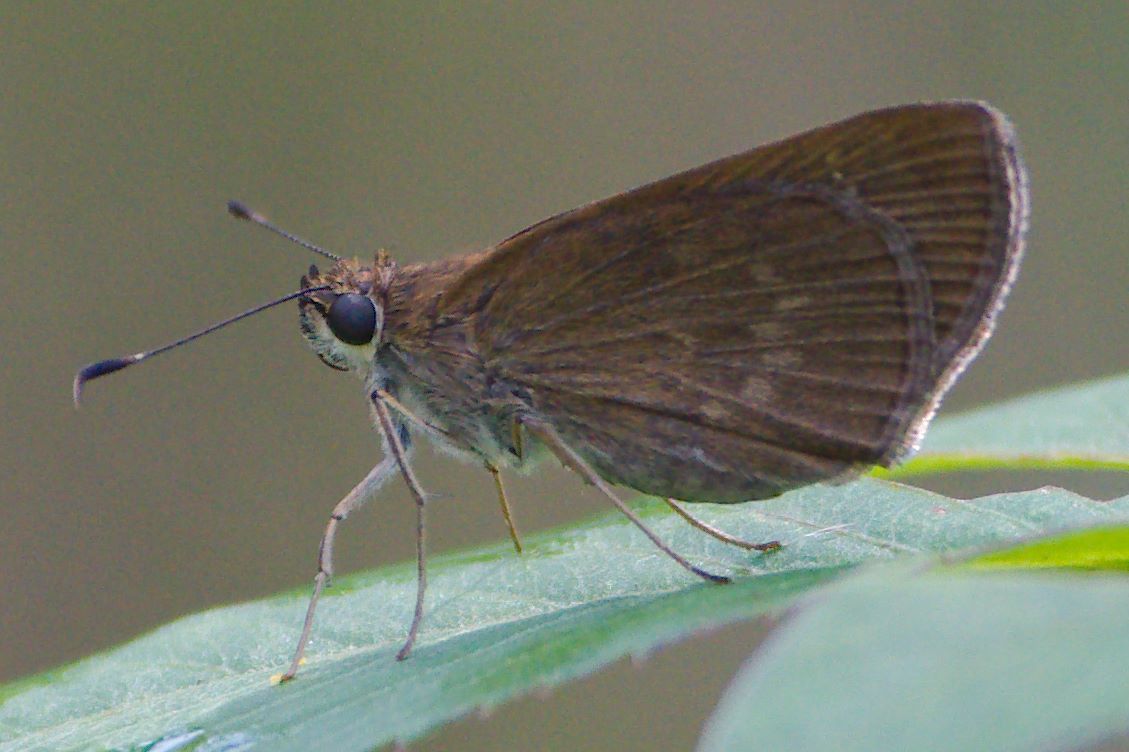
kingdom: Animalia
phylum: Arthropoda
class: Insecta
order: Lepidoptera
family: Hesperiidae
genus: Cymaenes
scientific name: Cymaenes tripunctus
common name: Dingy dotted skipper
